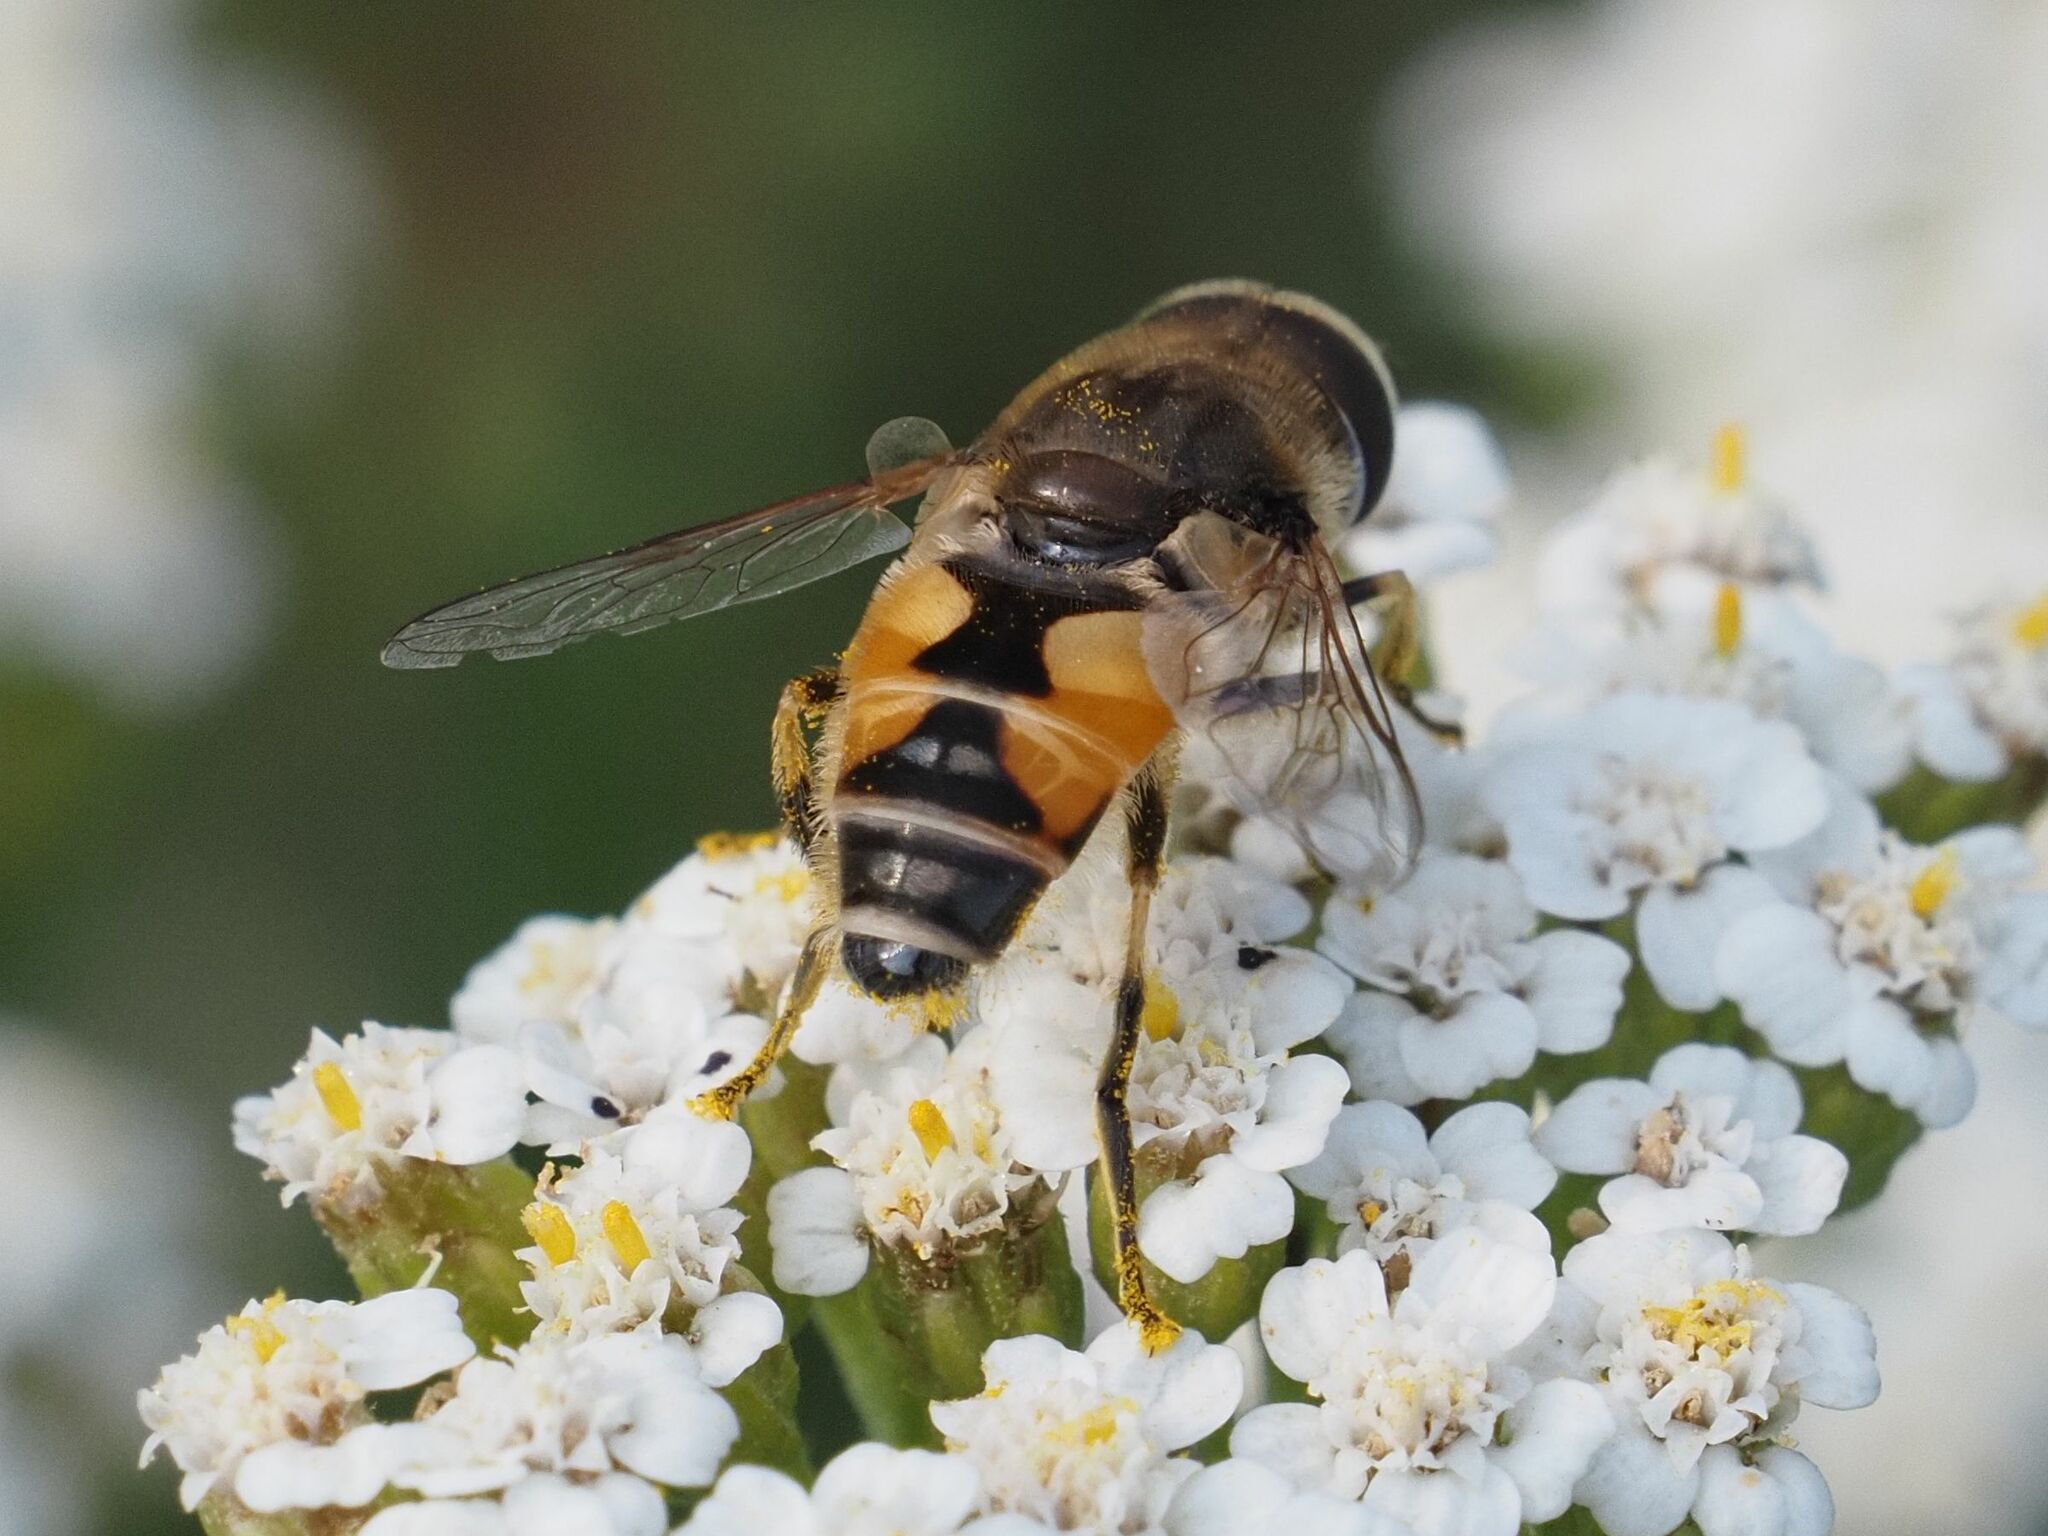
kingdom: Animalia
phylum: Arthropoda
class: Insecta
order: Diptera
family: Syrphidae
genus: Eristalis
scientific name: Eristalis arbustorum
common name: Hover fly
